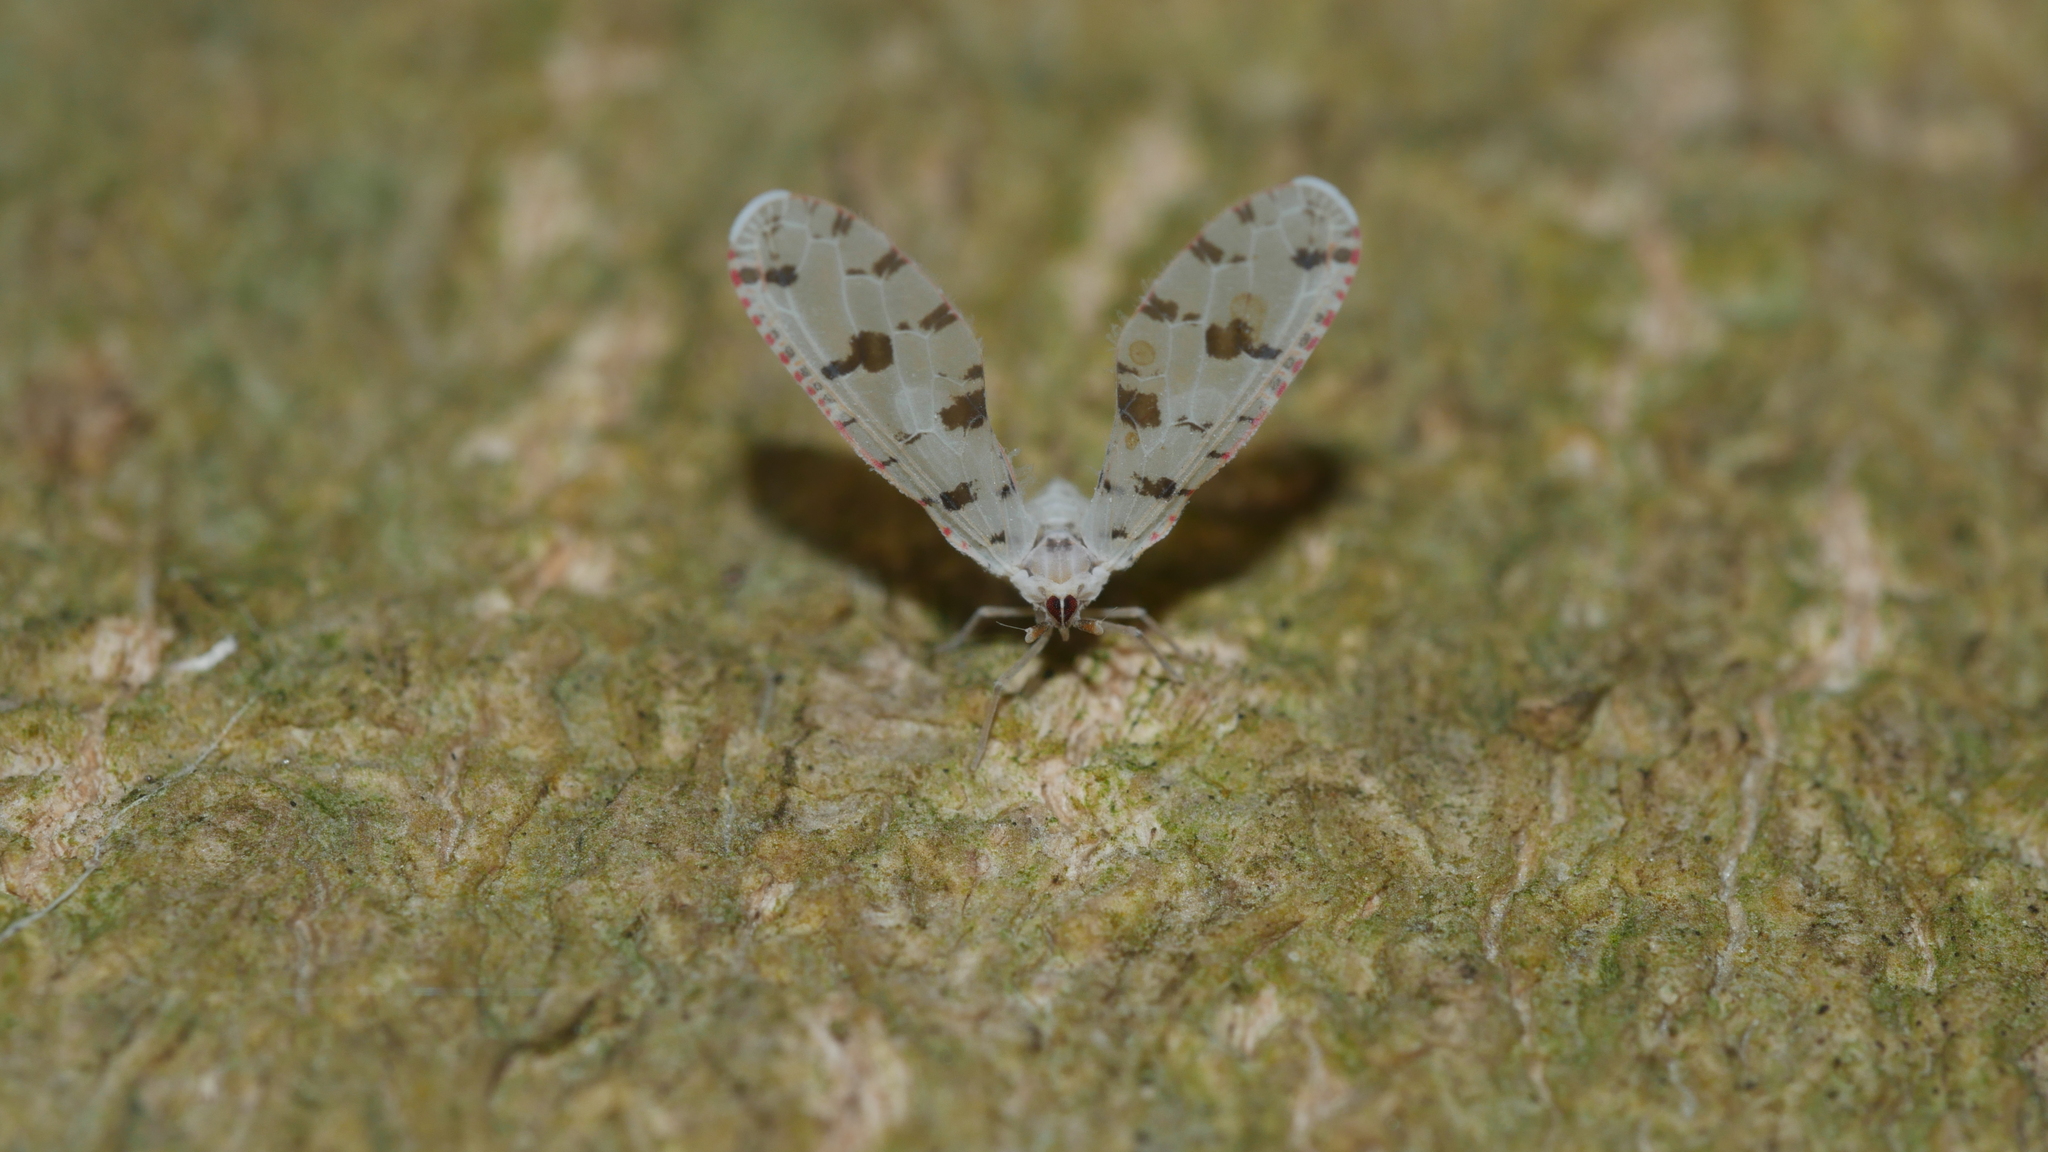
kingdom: Animalia
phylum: Arthropoda
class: Insecta
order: Hemiptera
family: Derbidae
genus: Sikaiana
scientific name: Sikaiana harti
